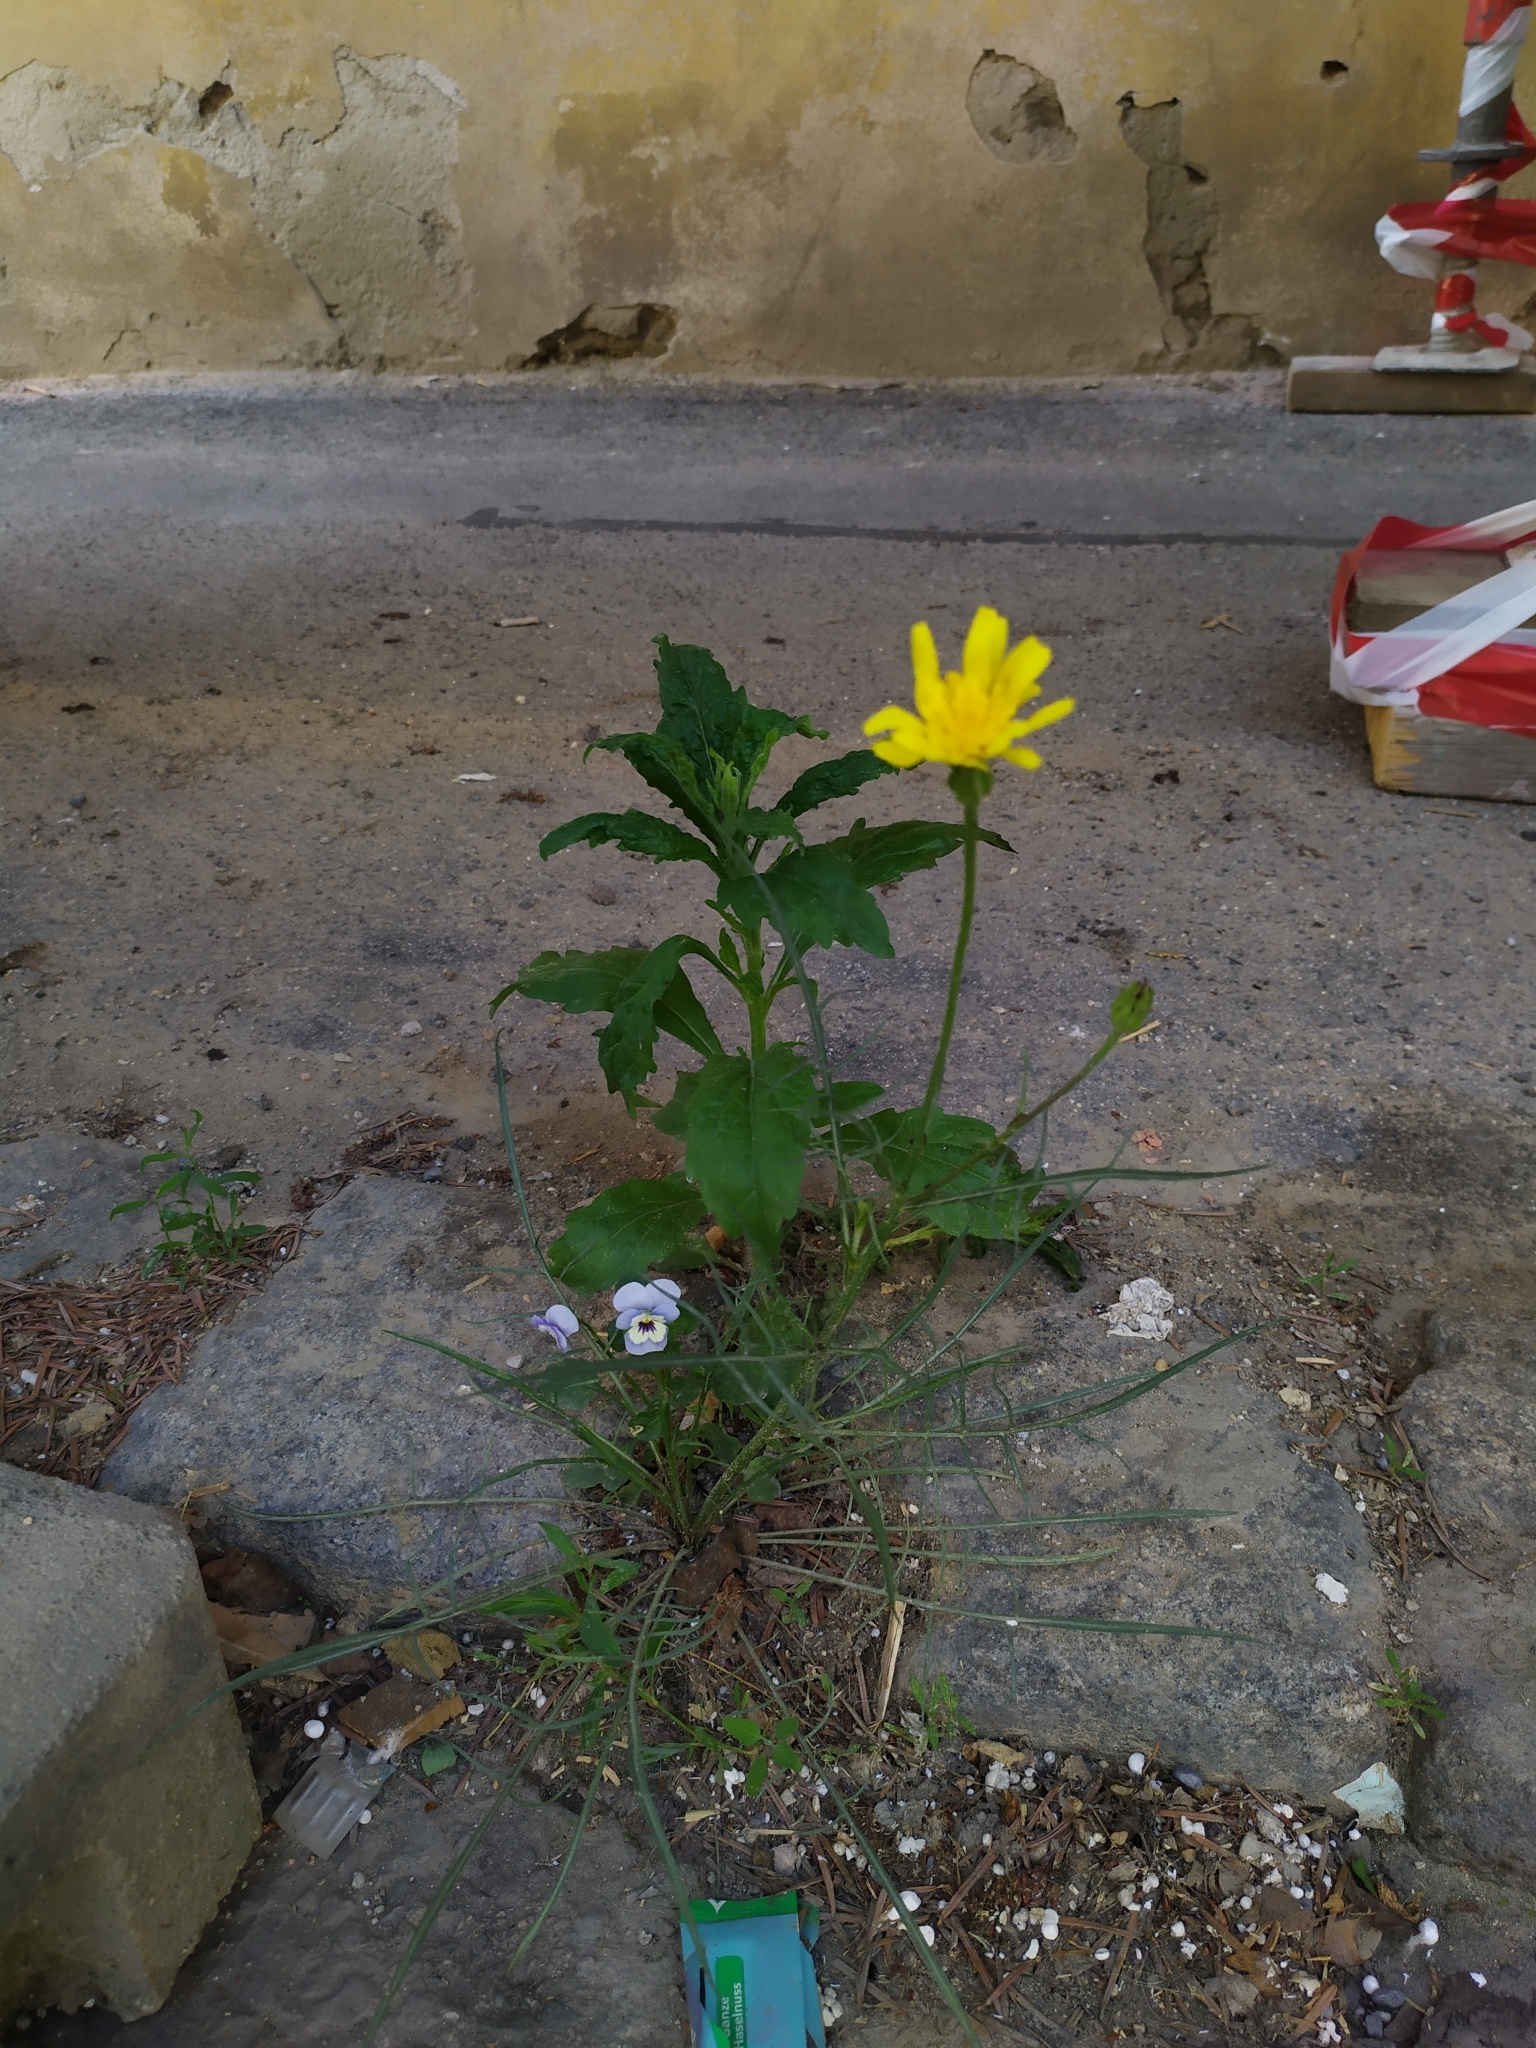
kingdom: Plantae
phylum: Tracheophyta
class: Magnoliopsida
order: Asterales
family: Asteraceae
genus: Scorzonera
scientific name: Scorzonera cana
